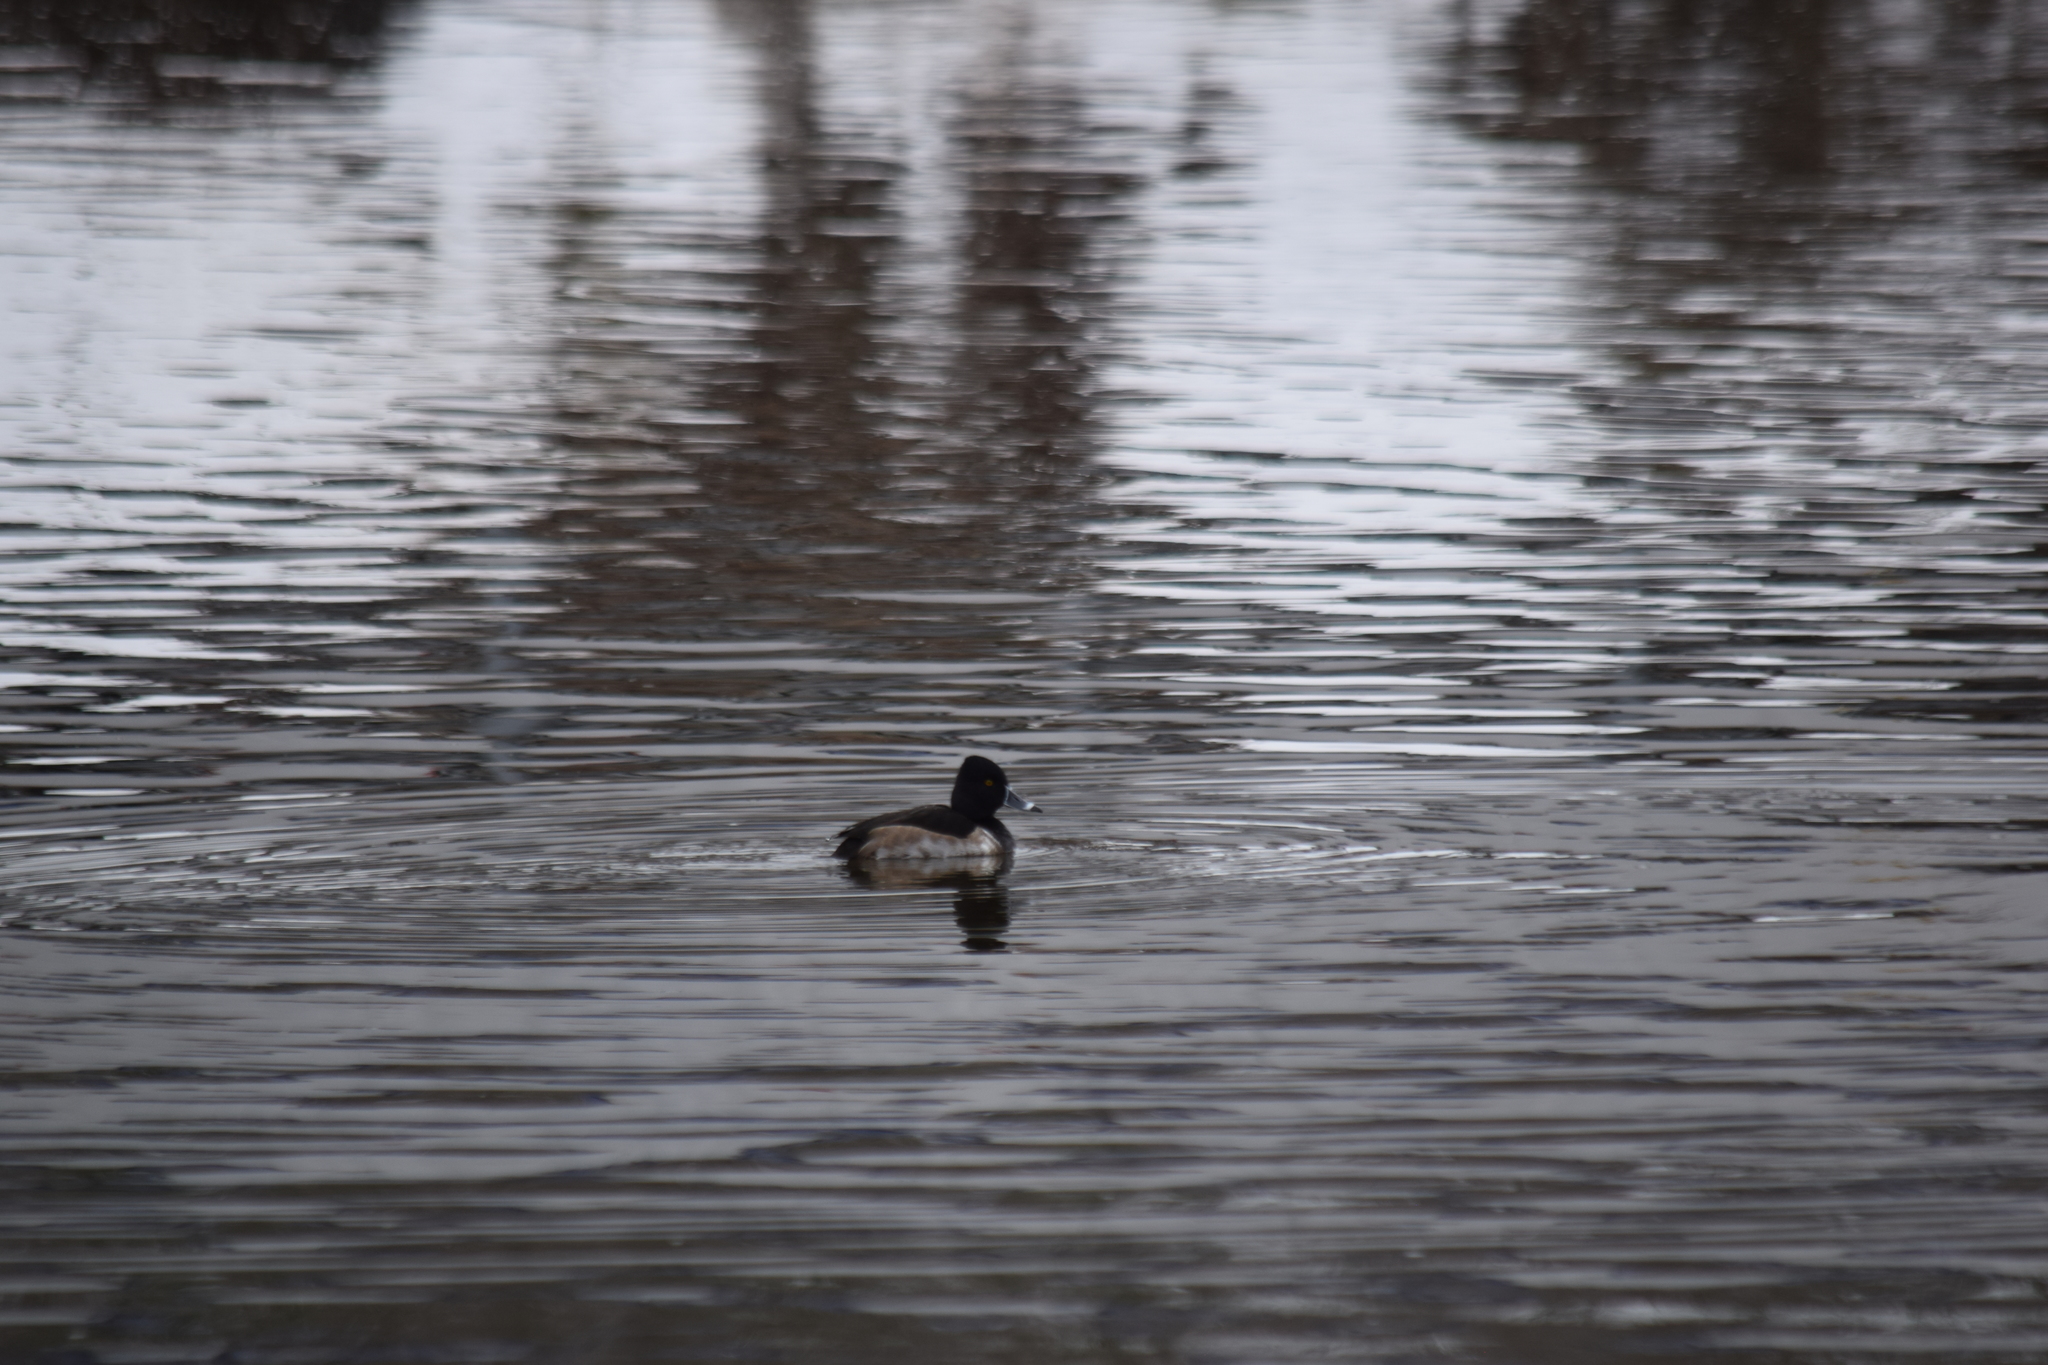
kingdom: Animalia
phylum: Chordata
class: Aves
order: Anseriformes
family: Anatidae
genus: Aythya
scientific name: Aythya collaris
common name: Ring-necked duck
